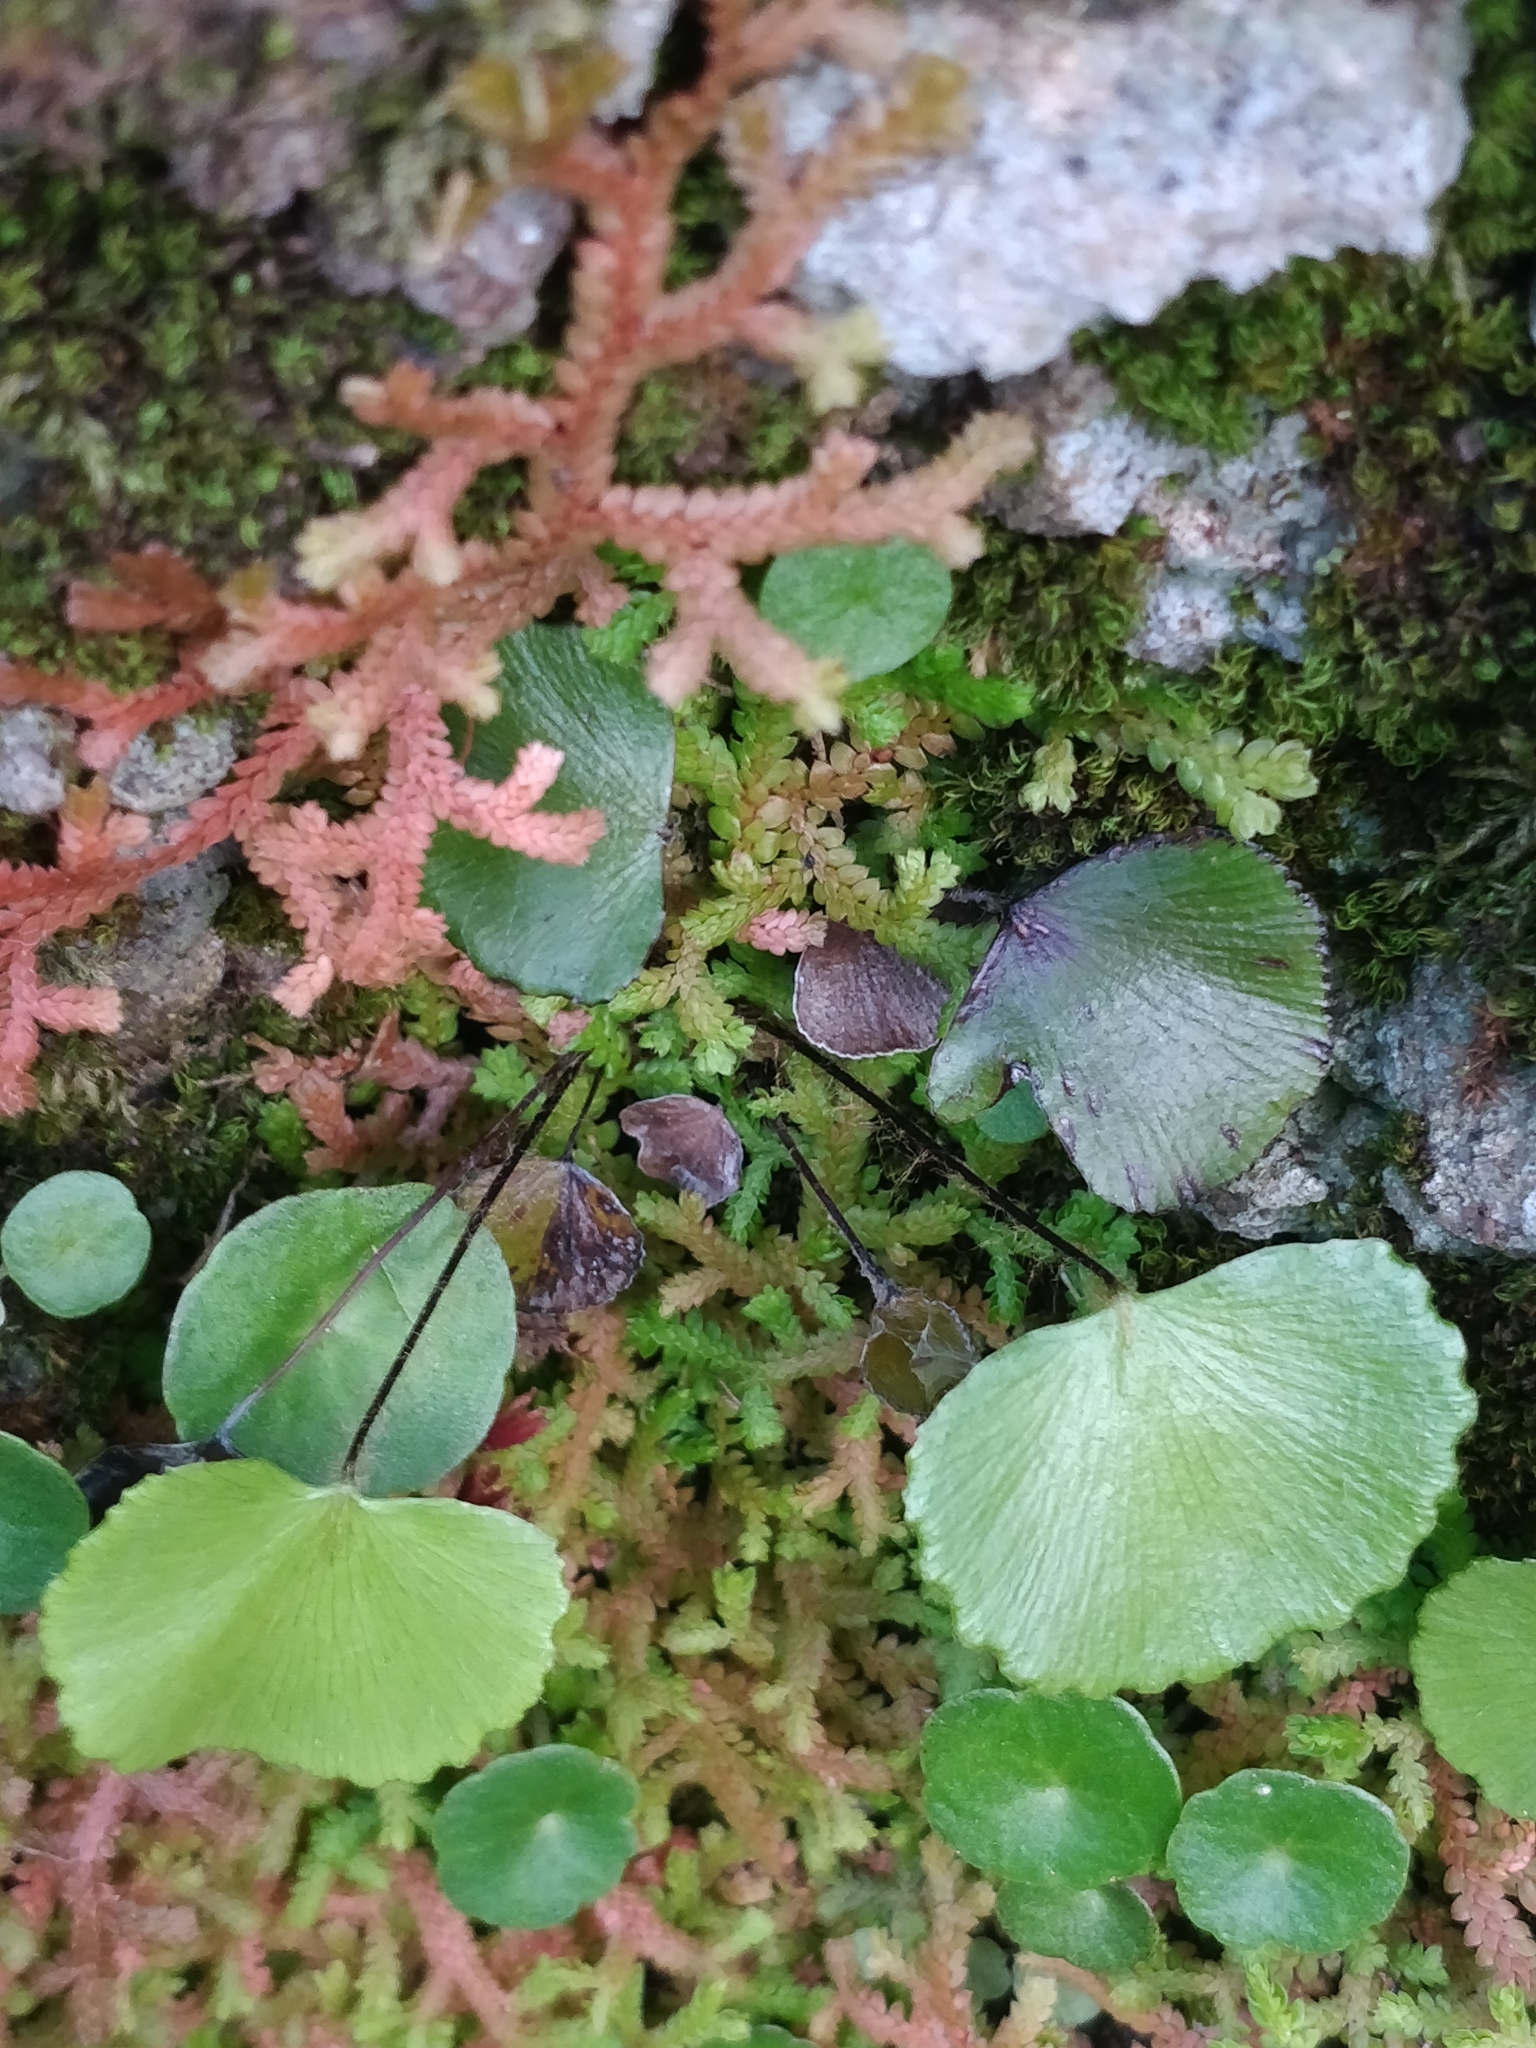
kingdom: Plantae
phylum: Tracheophyta
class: Polypodiopsida
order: Polypodiales
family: Pteridaceae
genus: Adiantum
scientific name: Adiantum reniforme
